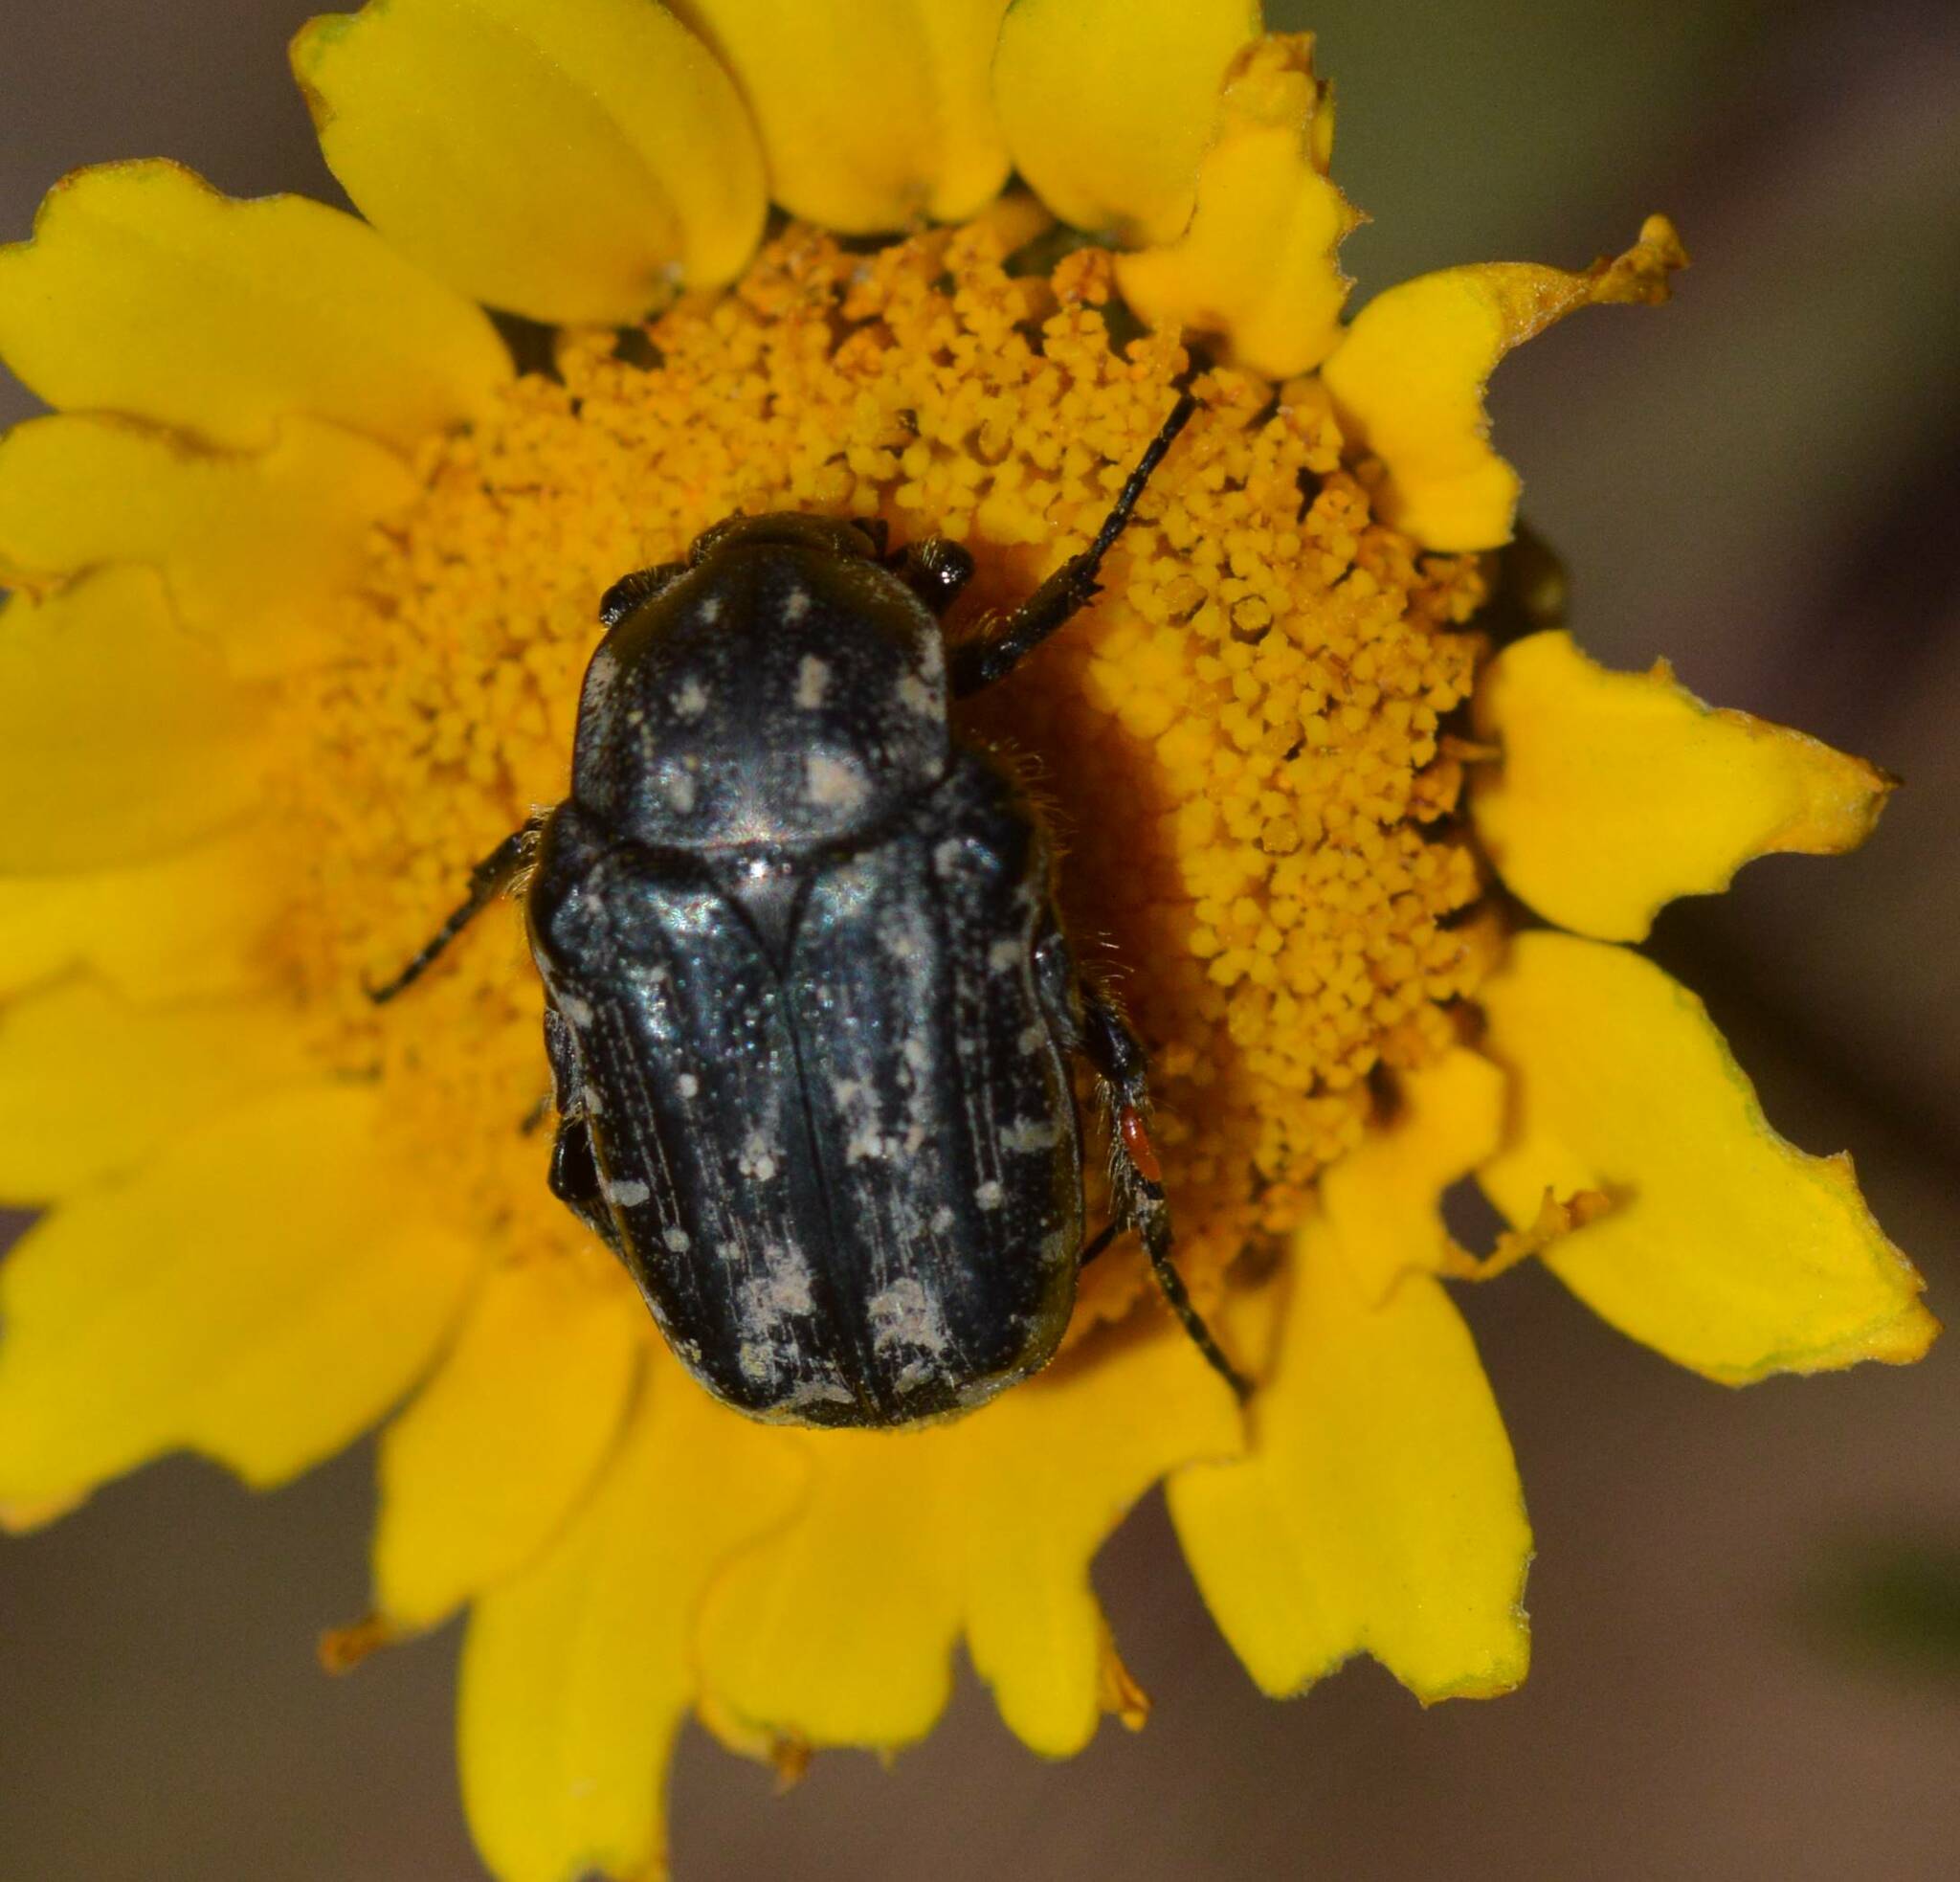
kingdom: Animalia
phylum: Arthropoda
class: Insecta
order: Coleoptera
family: Scarabaeidae
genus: Oxythyrea
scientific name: Oxythyrea funesta
